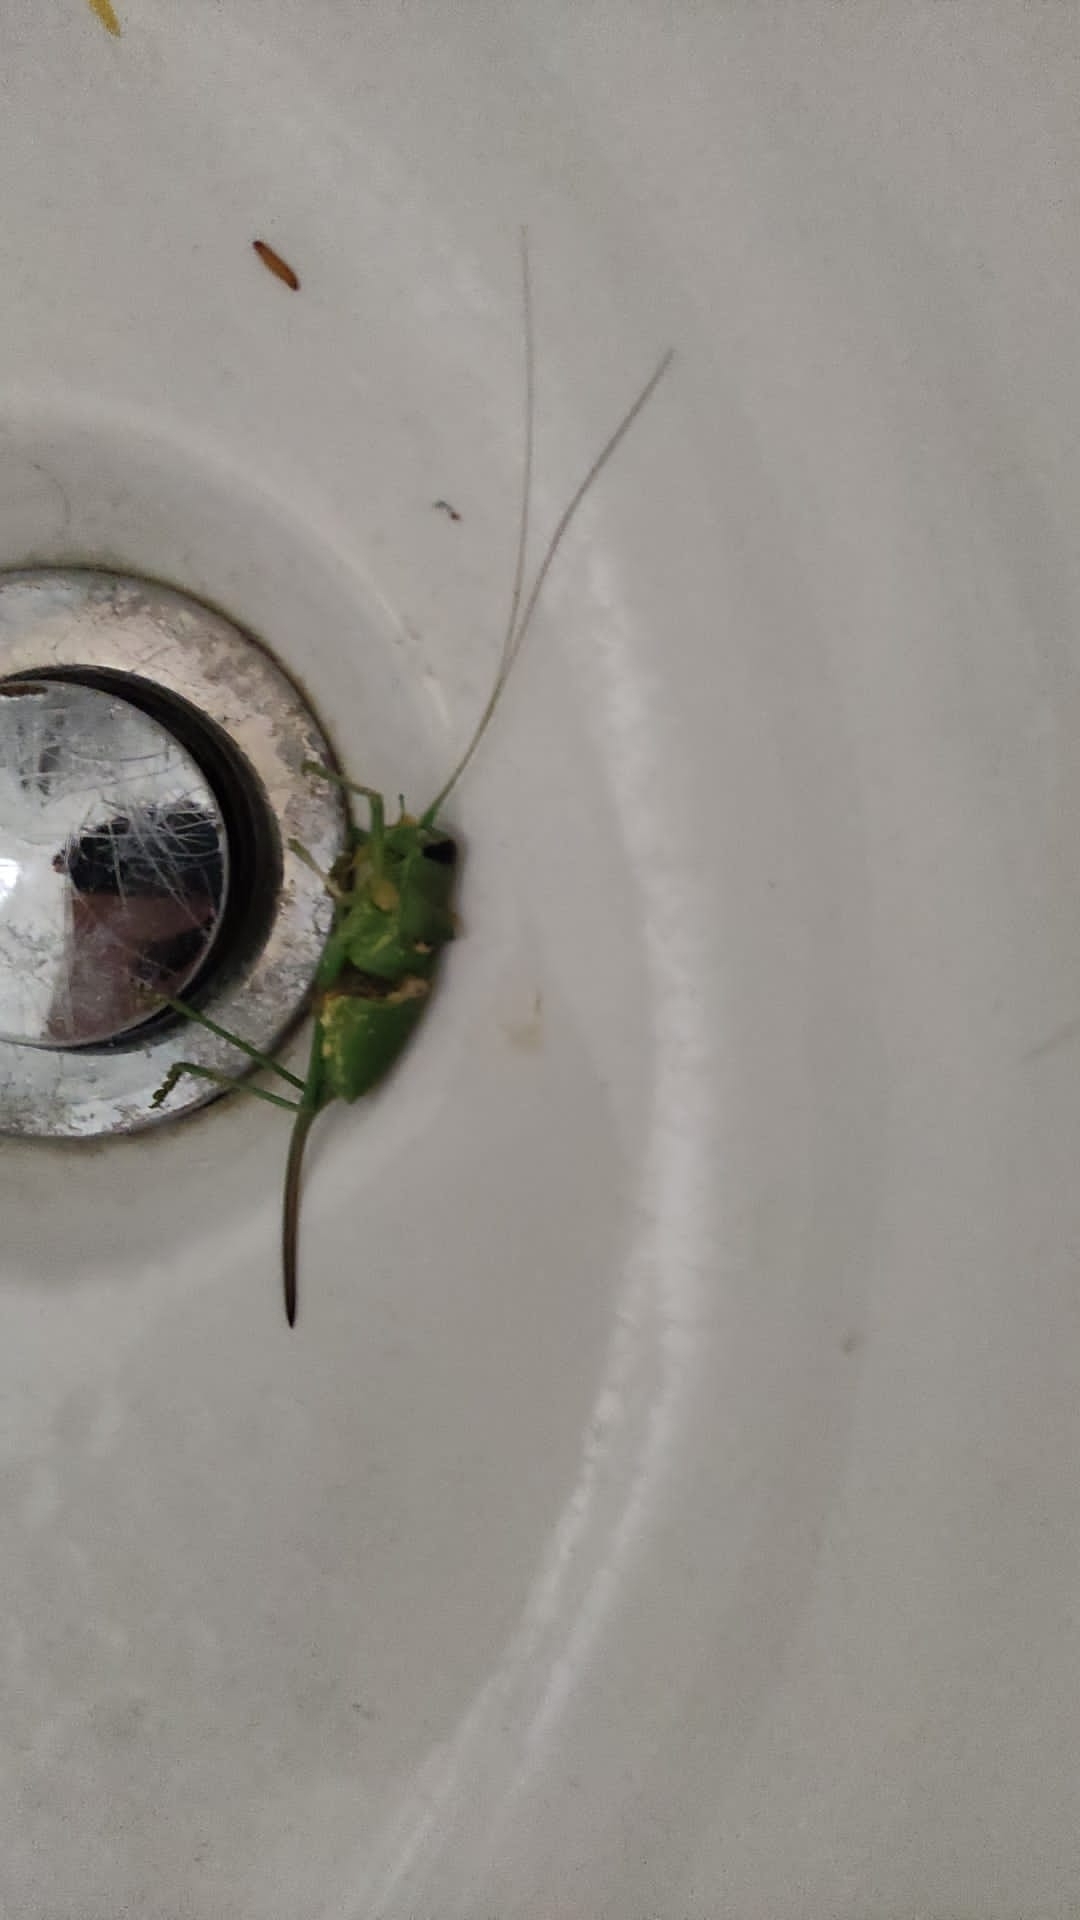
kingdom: Animalia
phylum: Arthropoda
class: Insecta
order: Orthoptera
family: Tettigoniidae
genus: Ephippiger
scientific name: Ephippiger cavannai
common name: Cavanna's saddle bush-cricket
